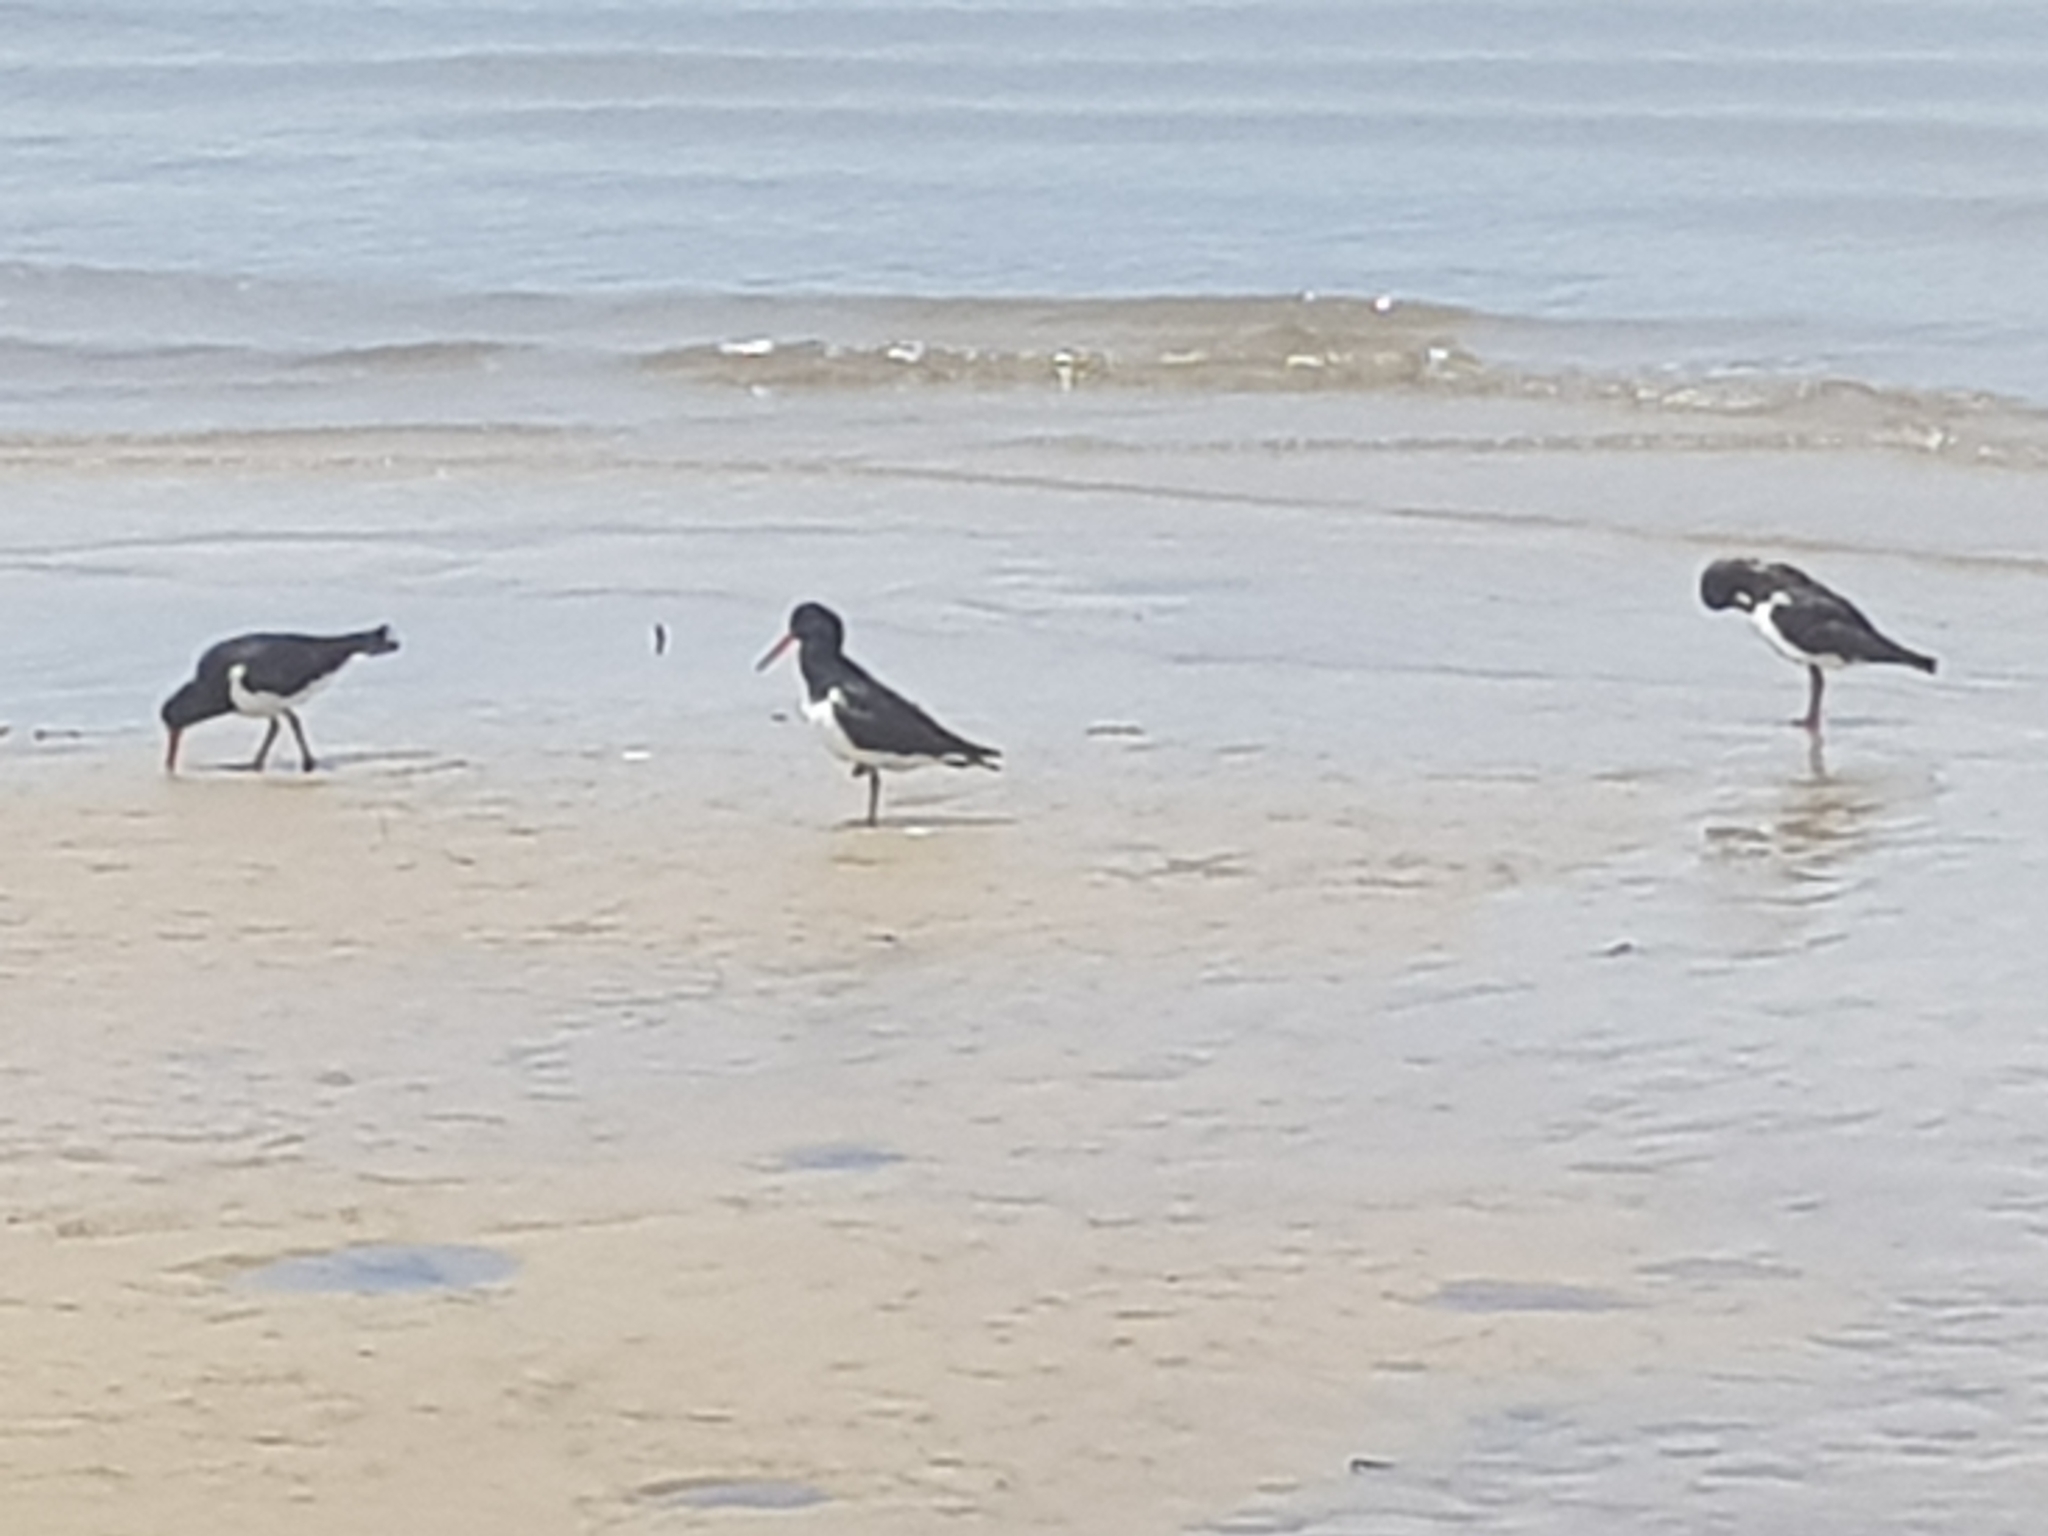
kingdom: Animalia
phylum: Chordata
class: Aves
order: Charadriiformes
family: Haematopodidae
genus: Haematopus
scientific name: Haematopus longirostris
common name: Pied oystercatcher
